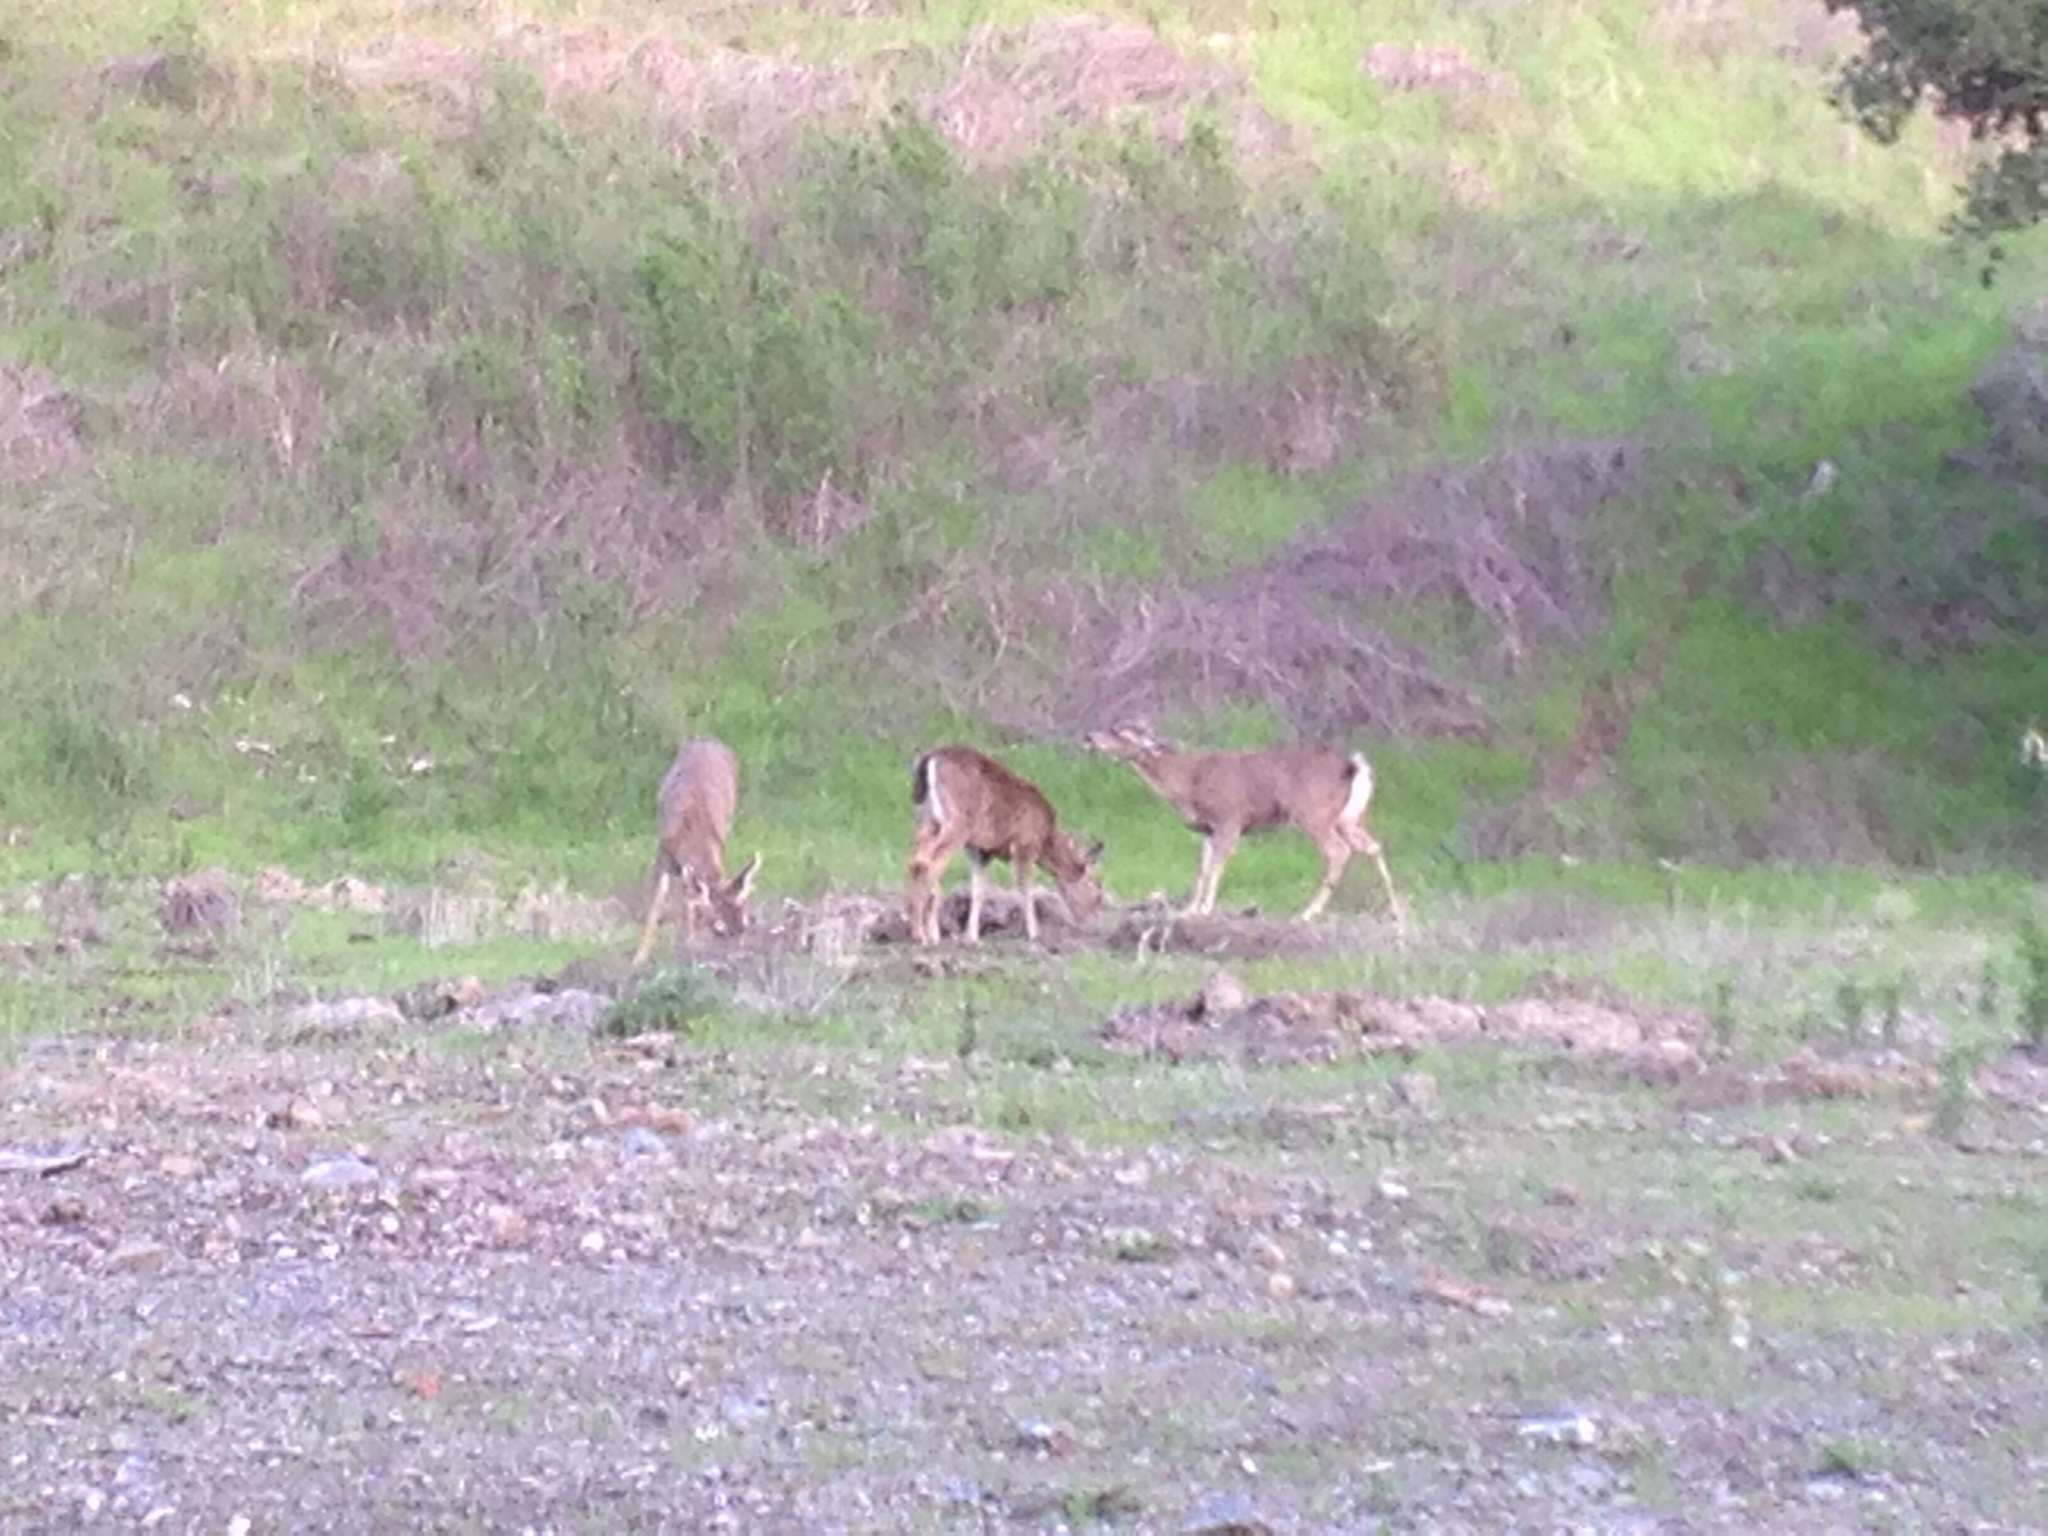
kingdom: Animalia
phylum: Chordata
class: Mammalia
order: Artiodactyla
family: Cervidae
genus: Odocoileus
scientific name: Odocoileus hemionus
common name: Mule deer
